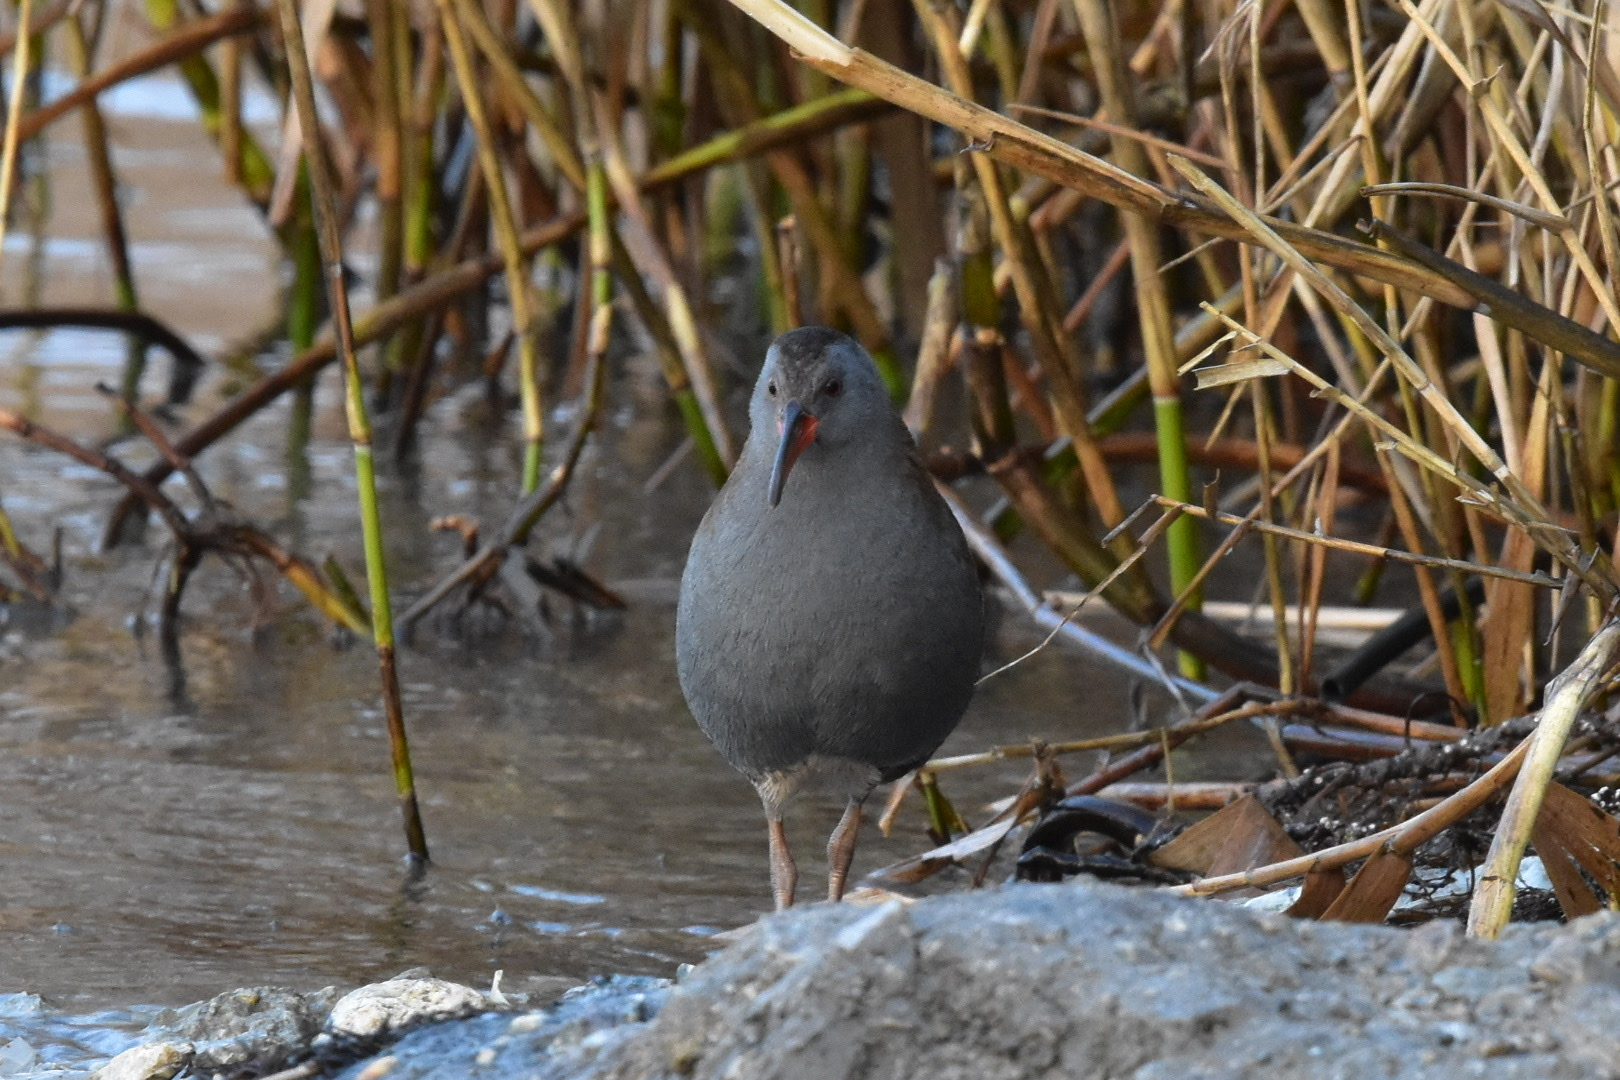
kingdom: Animalia
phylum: Chordata
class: Aves
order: Gruiformes
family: Rallidae
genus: Rallus
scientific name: Rallus aquaticus
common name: Water rail
